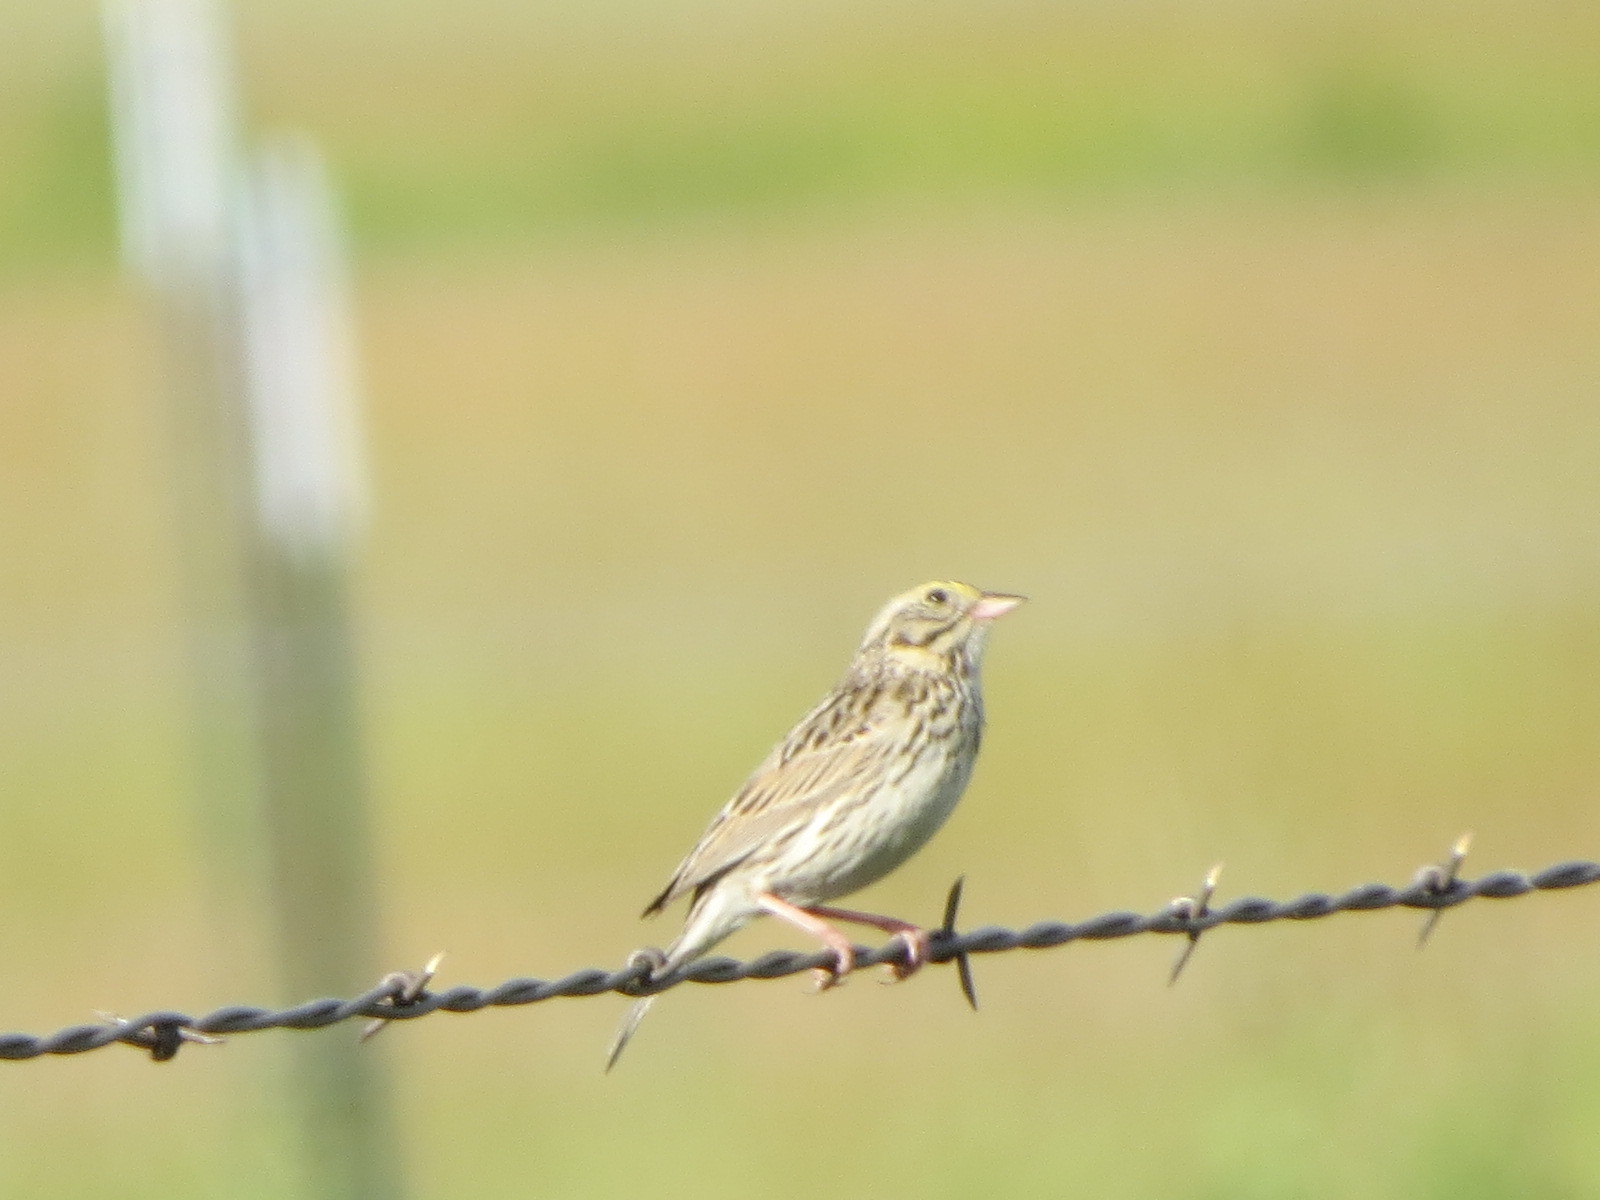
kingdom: Animalia
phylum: Chordata
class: Aves
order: Passeriformes
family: Passerellidae
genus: Passerculus
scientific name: Passerculus sandwichensis
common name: Savannah sparrow
